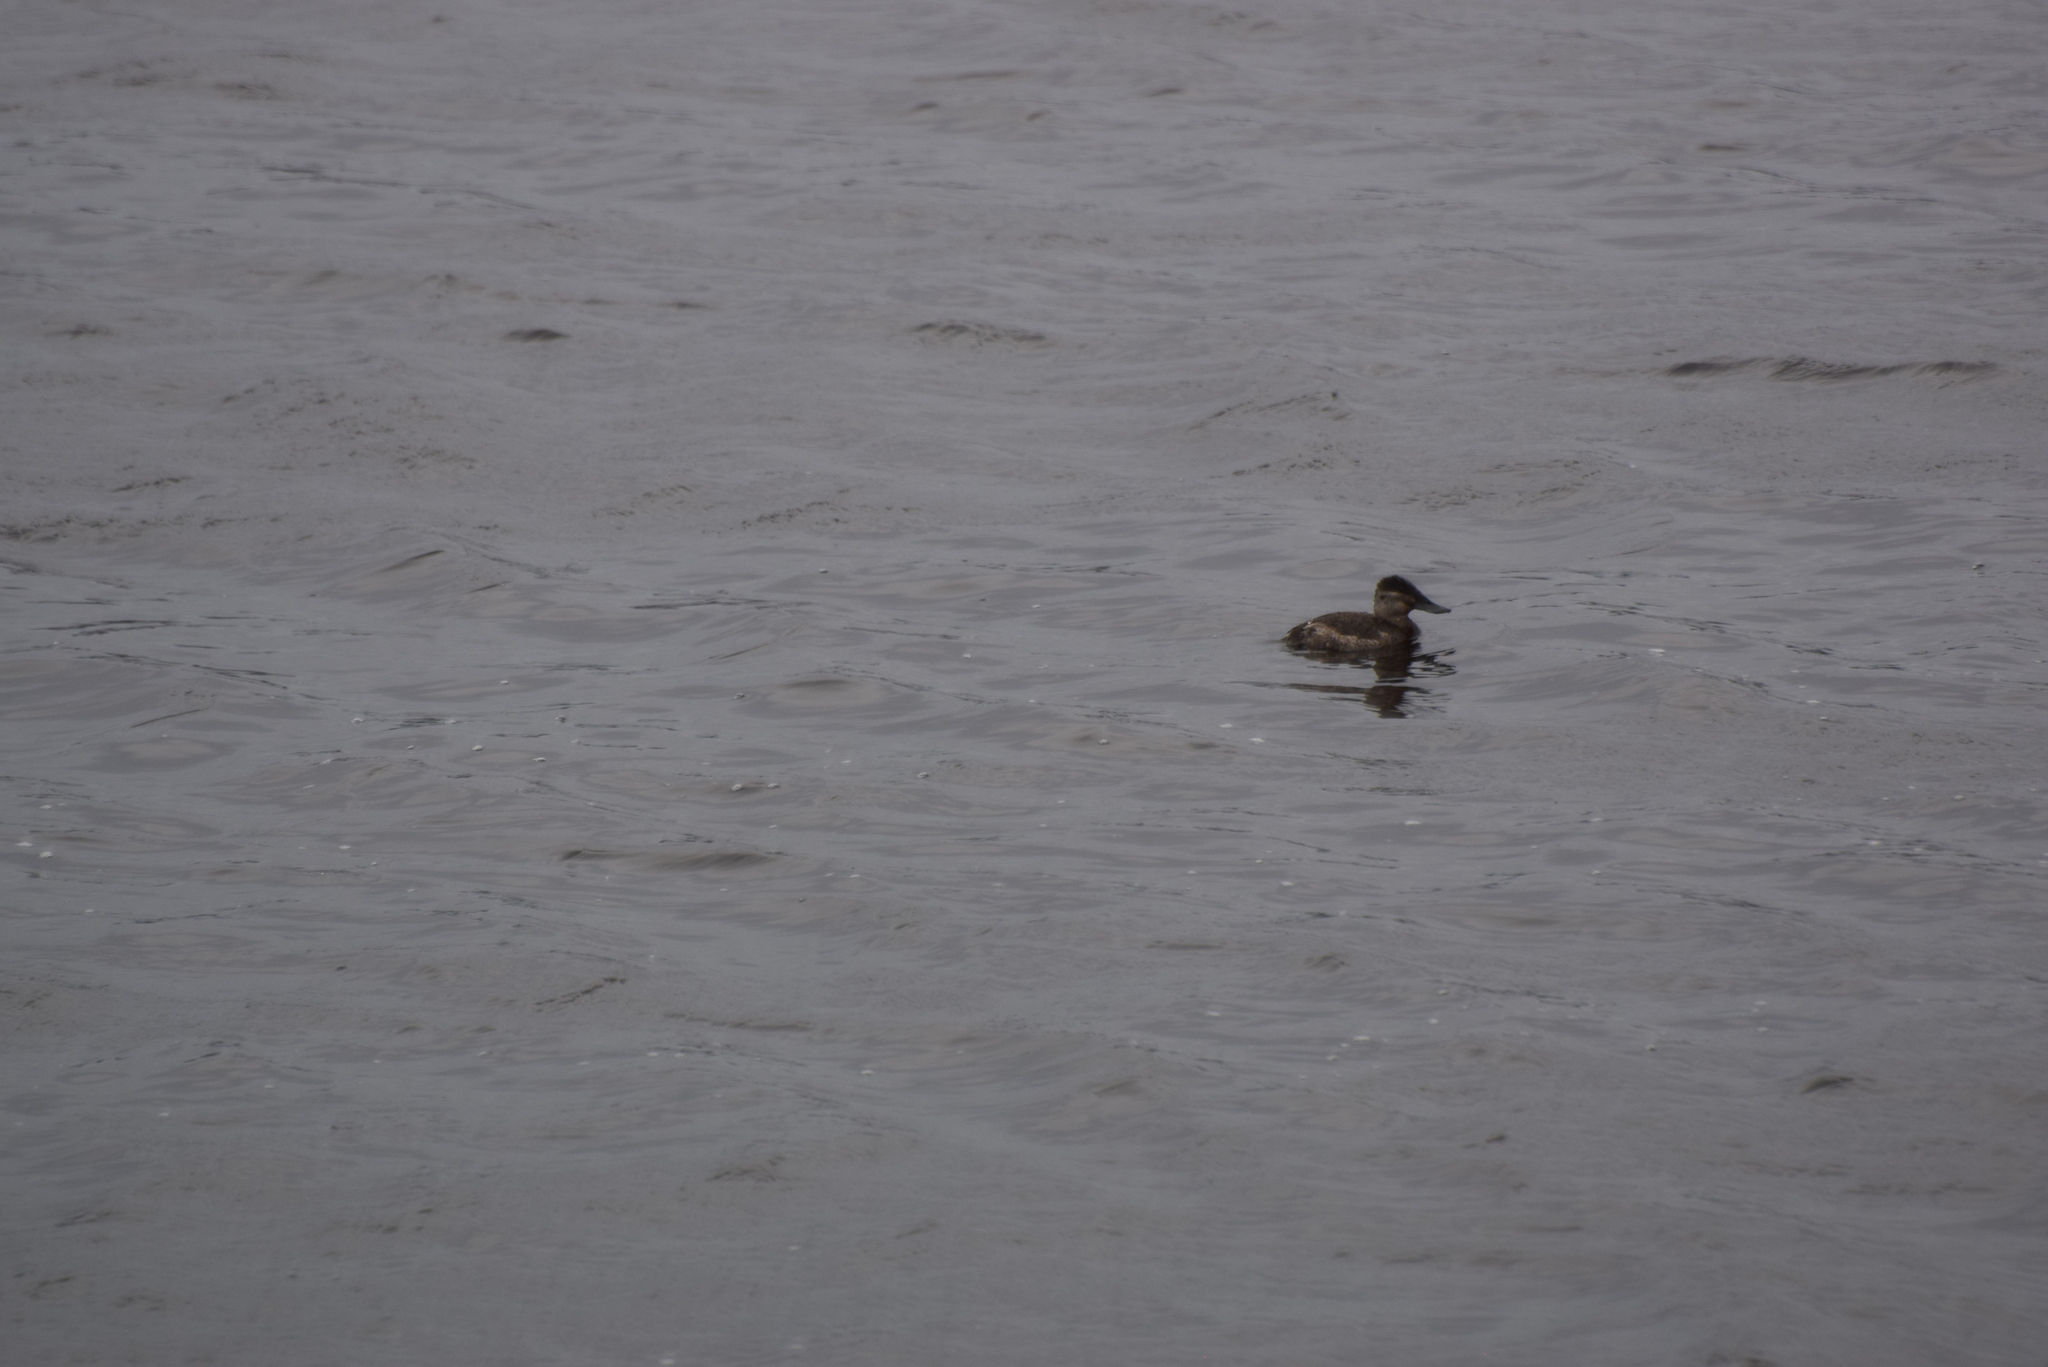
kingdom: Animalia
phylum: Chordata
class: Aves
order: Anseriformes
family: Anatidae
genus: Oxyura
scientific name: Oxyura jamaicensis
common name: Ruddy duck
